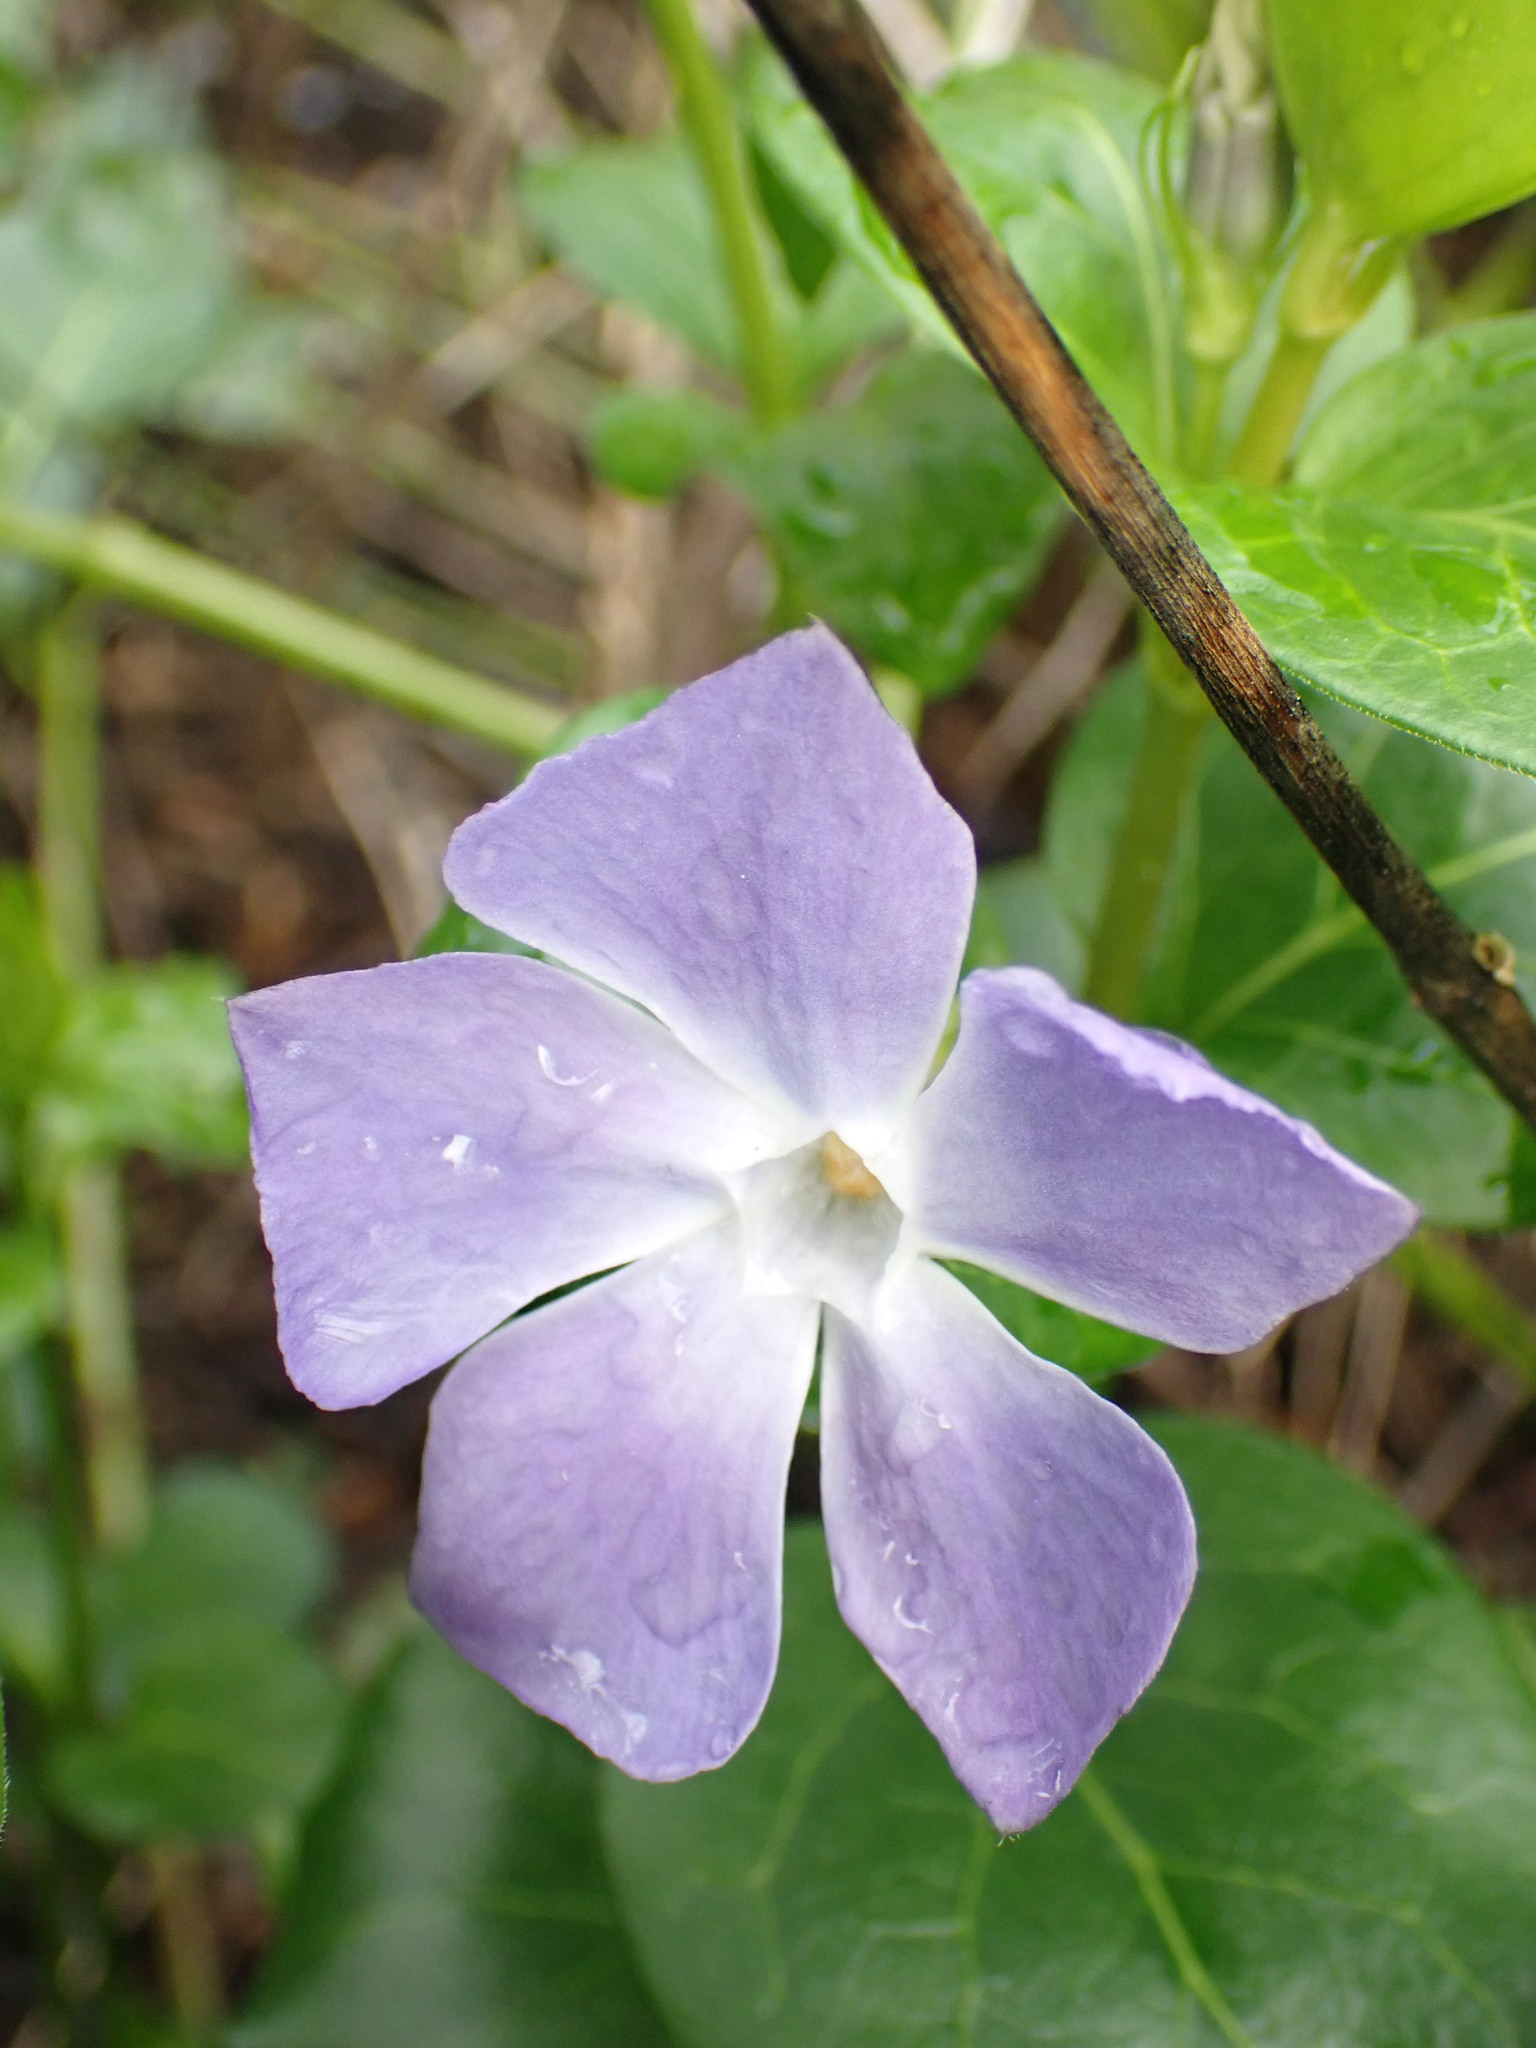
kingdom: Plantae
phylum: Tracheophyta
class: Magnoliopsida
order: Gentianales
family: Apocynaceae
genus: Vinca
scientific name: Vinca major
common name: Greater periwinkle
